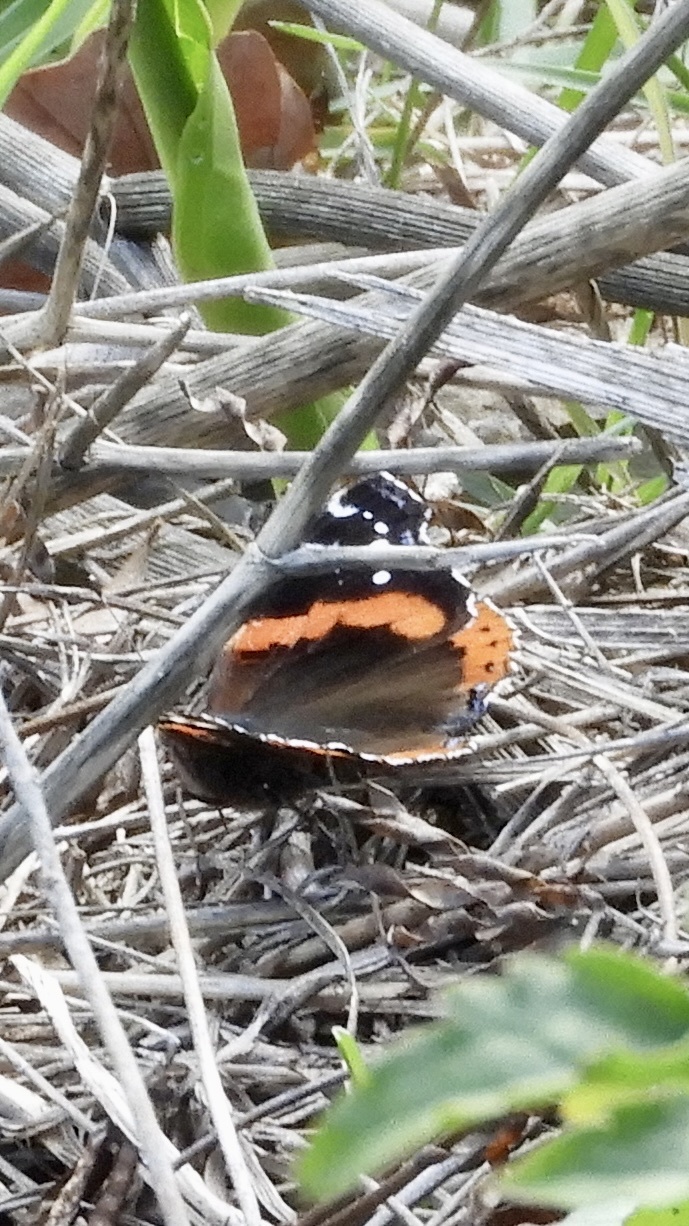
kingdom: Animalia
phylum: Arthropoda
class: Insecta
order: Lepidoptera
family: Nymphalidae
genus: Vanessa
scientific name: Vanessa atalanta
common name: Red admiral
